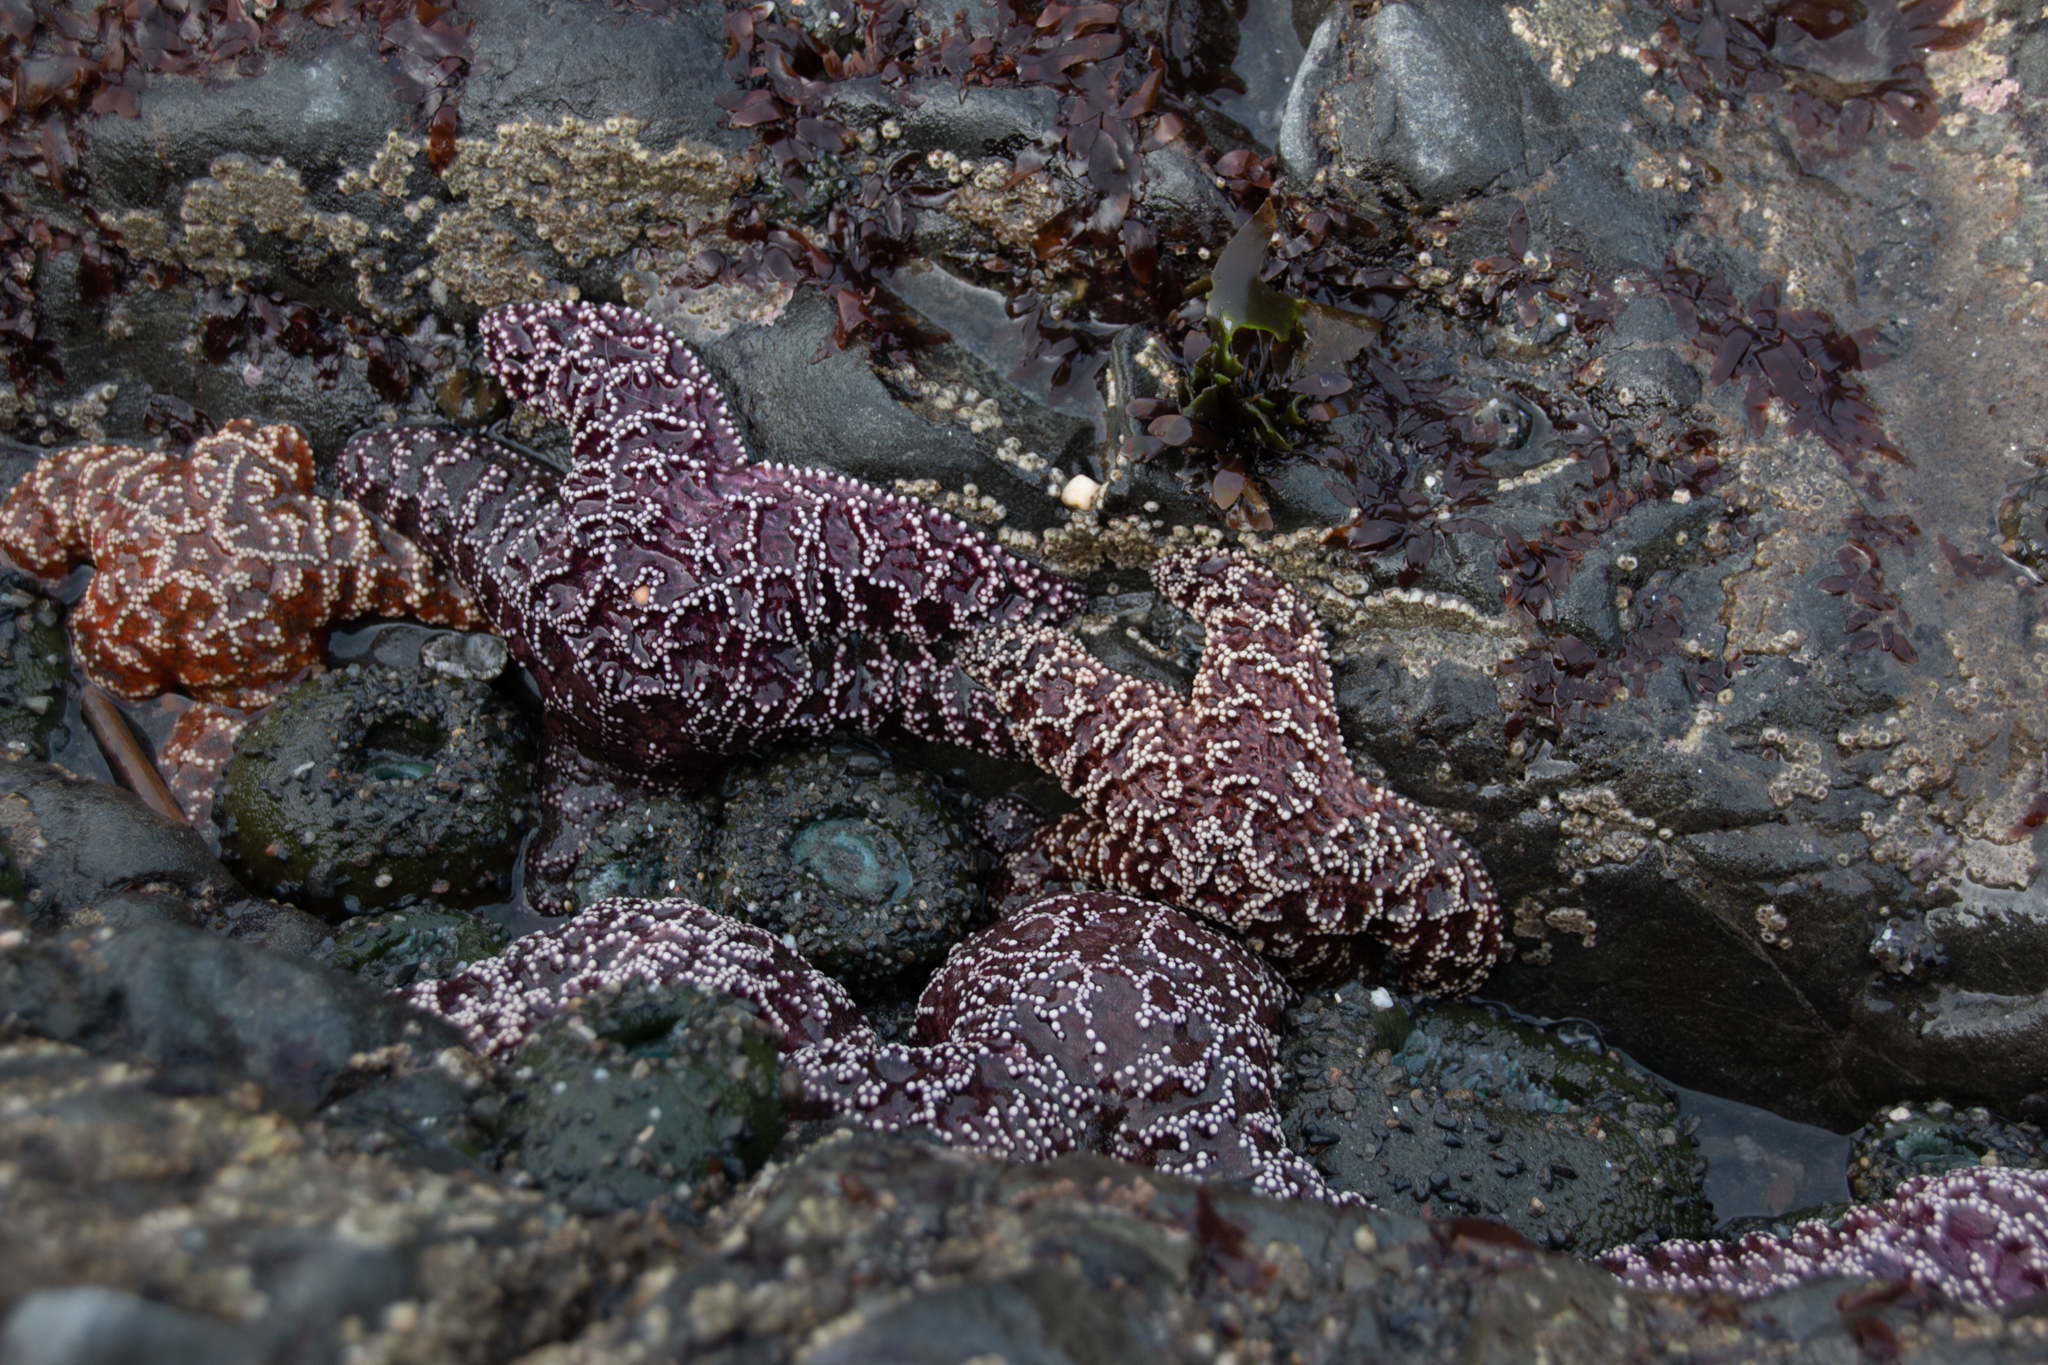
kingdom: Animalia
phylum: Echinodermata
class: Asteroidea
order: Forcipulatida
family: Asteriidae
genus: Pisaster
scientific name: Pisaster ochraceus
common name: Ochre stars
